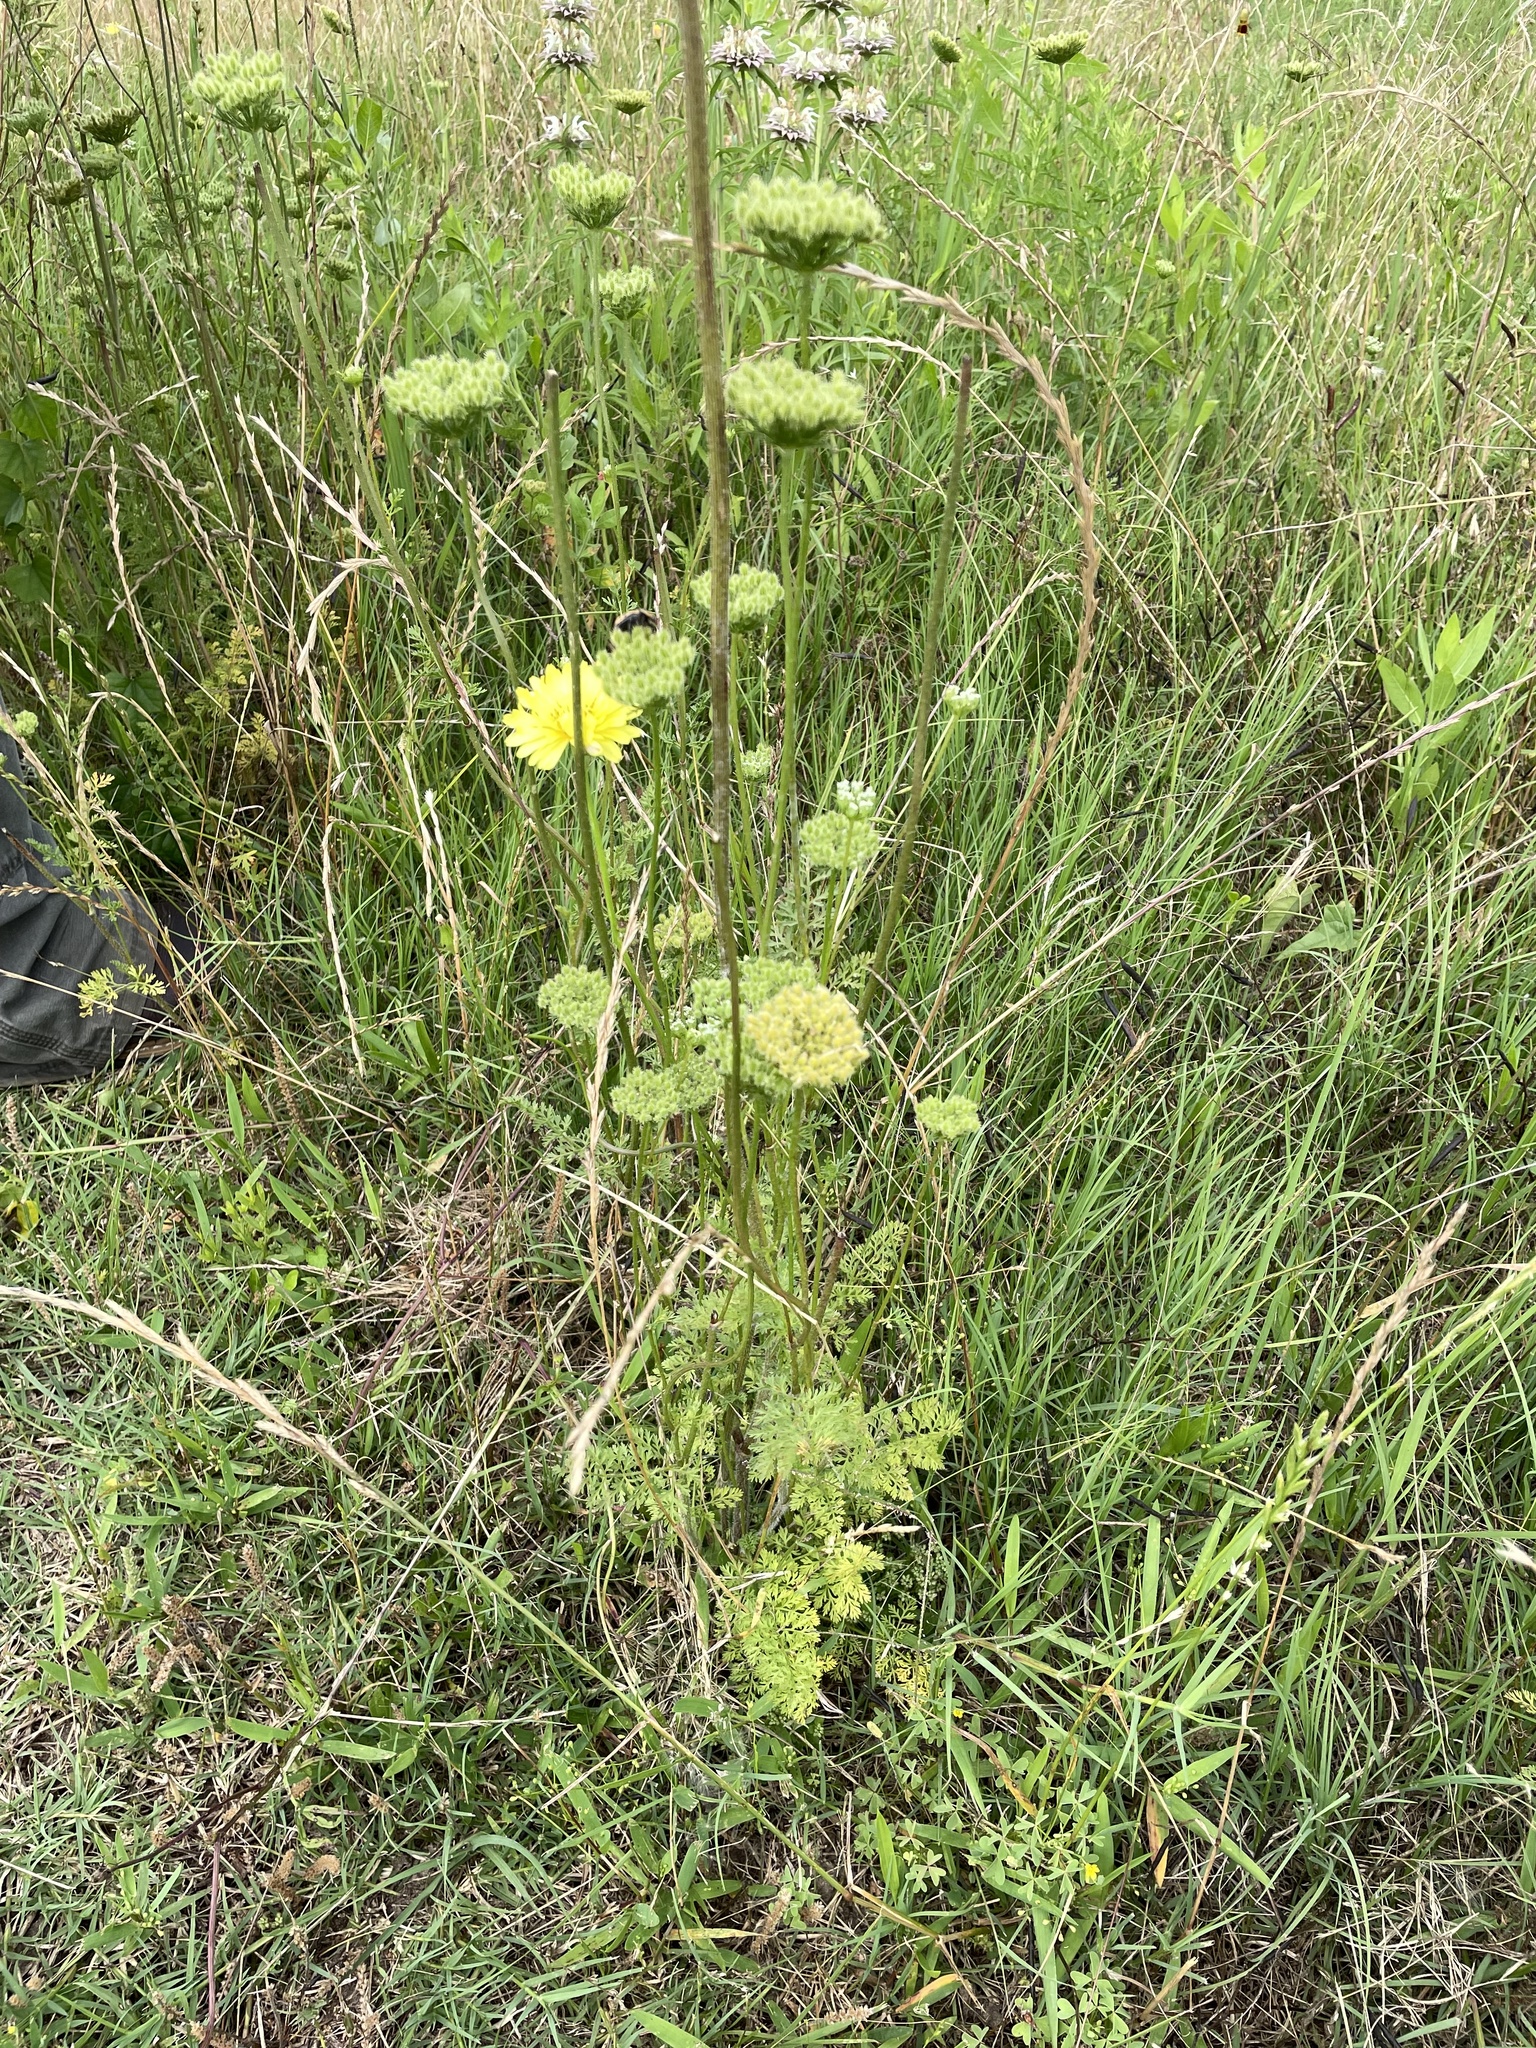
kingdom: Plantae
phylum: Tracheophyta
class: Magnoliopsida
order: Apiales
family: Apiaceae
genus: Daucus
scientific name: Daucus pusillus
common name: Southwest wild carrot
